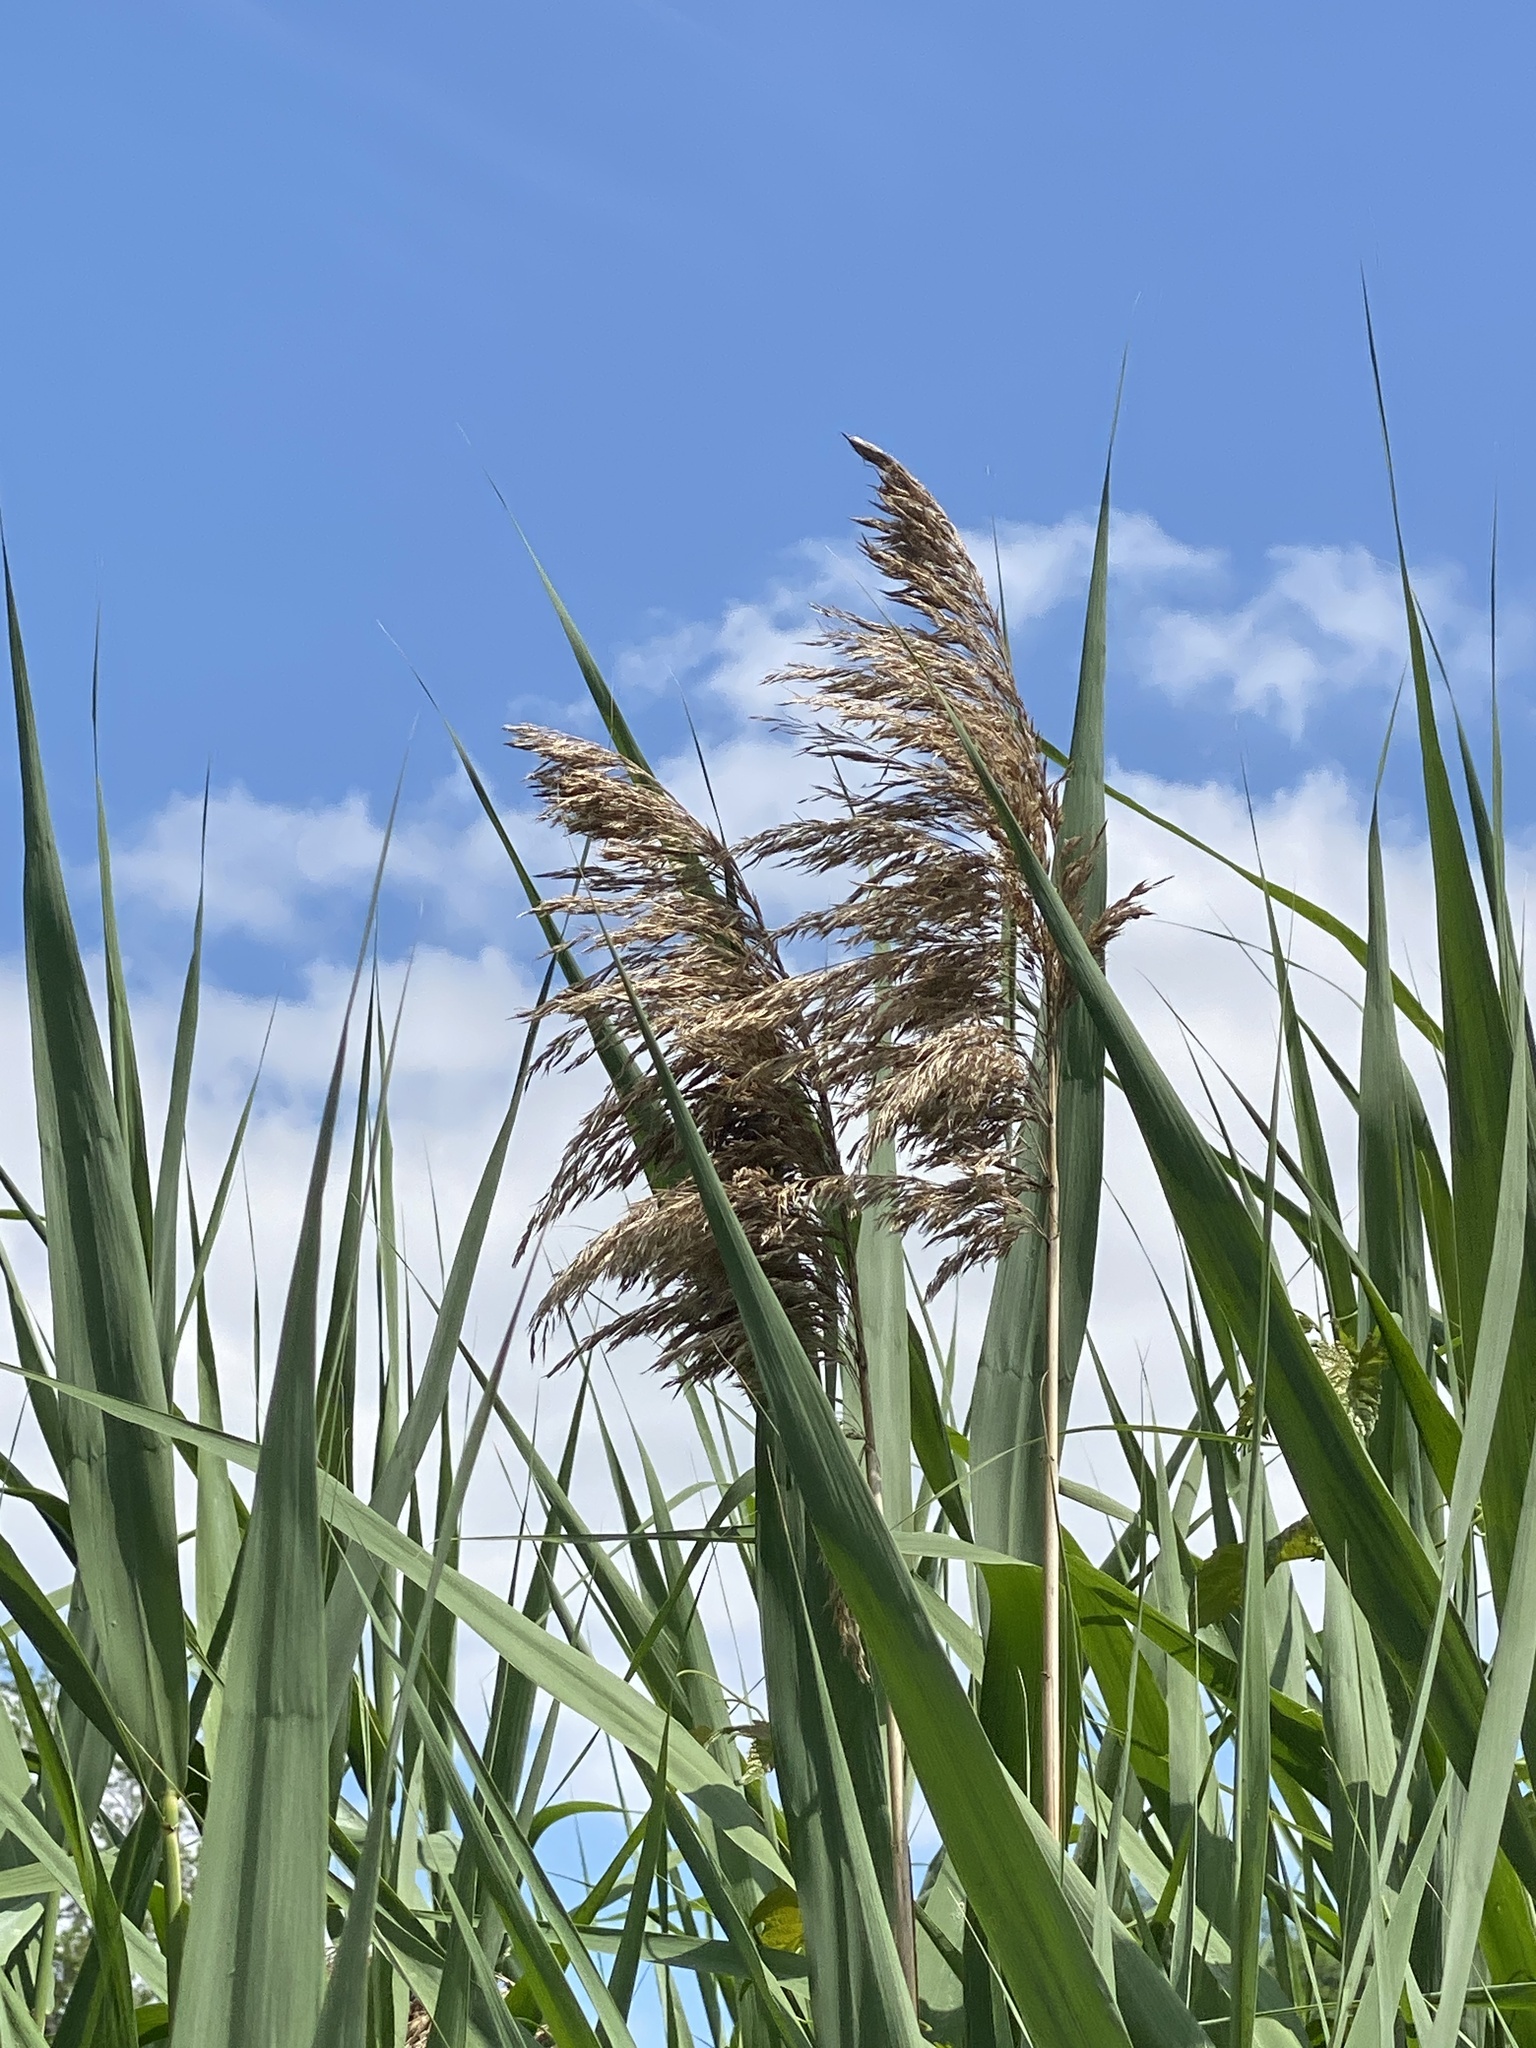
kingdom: Plantae
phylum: Tracheophyta
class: Liliopsida
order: Poales
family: Poaceae
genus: Phragmites
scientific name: Phragmites australis
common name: Common reed
